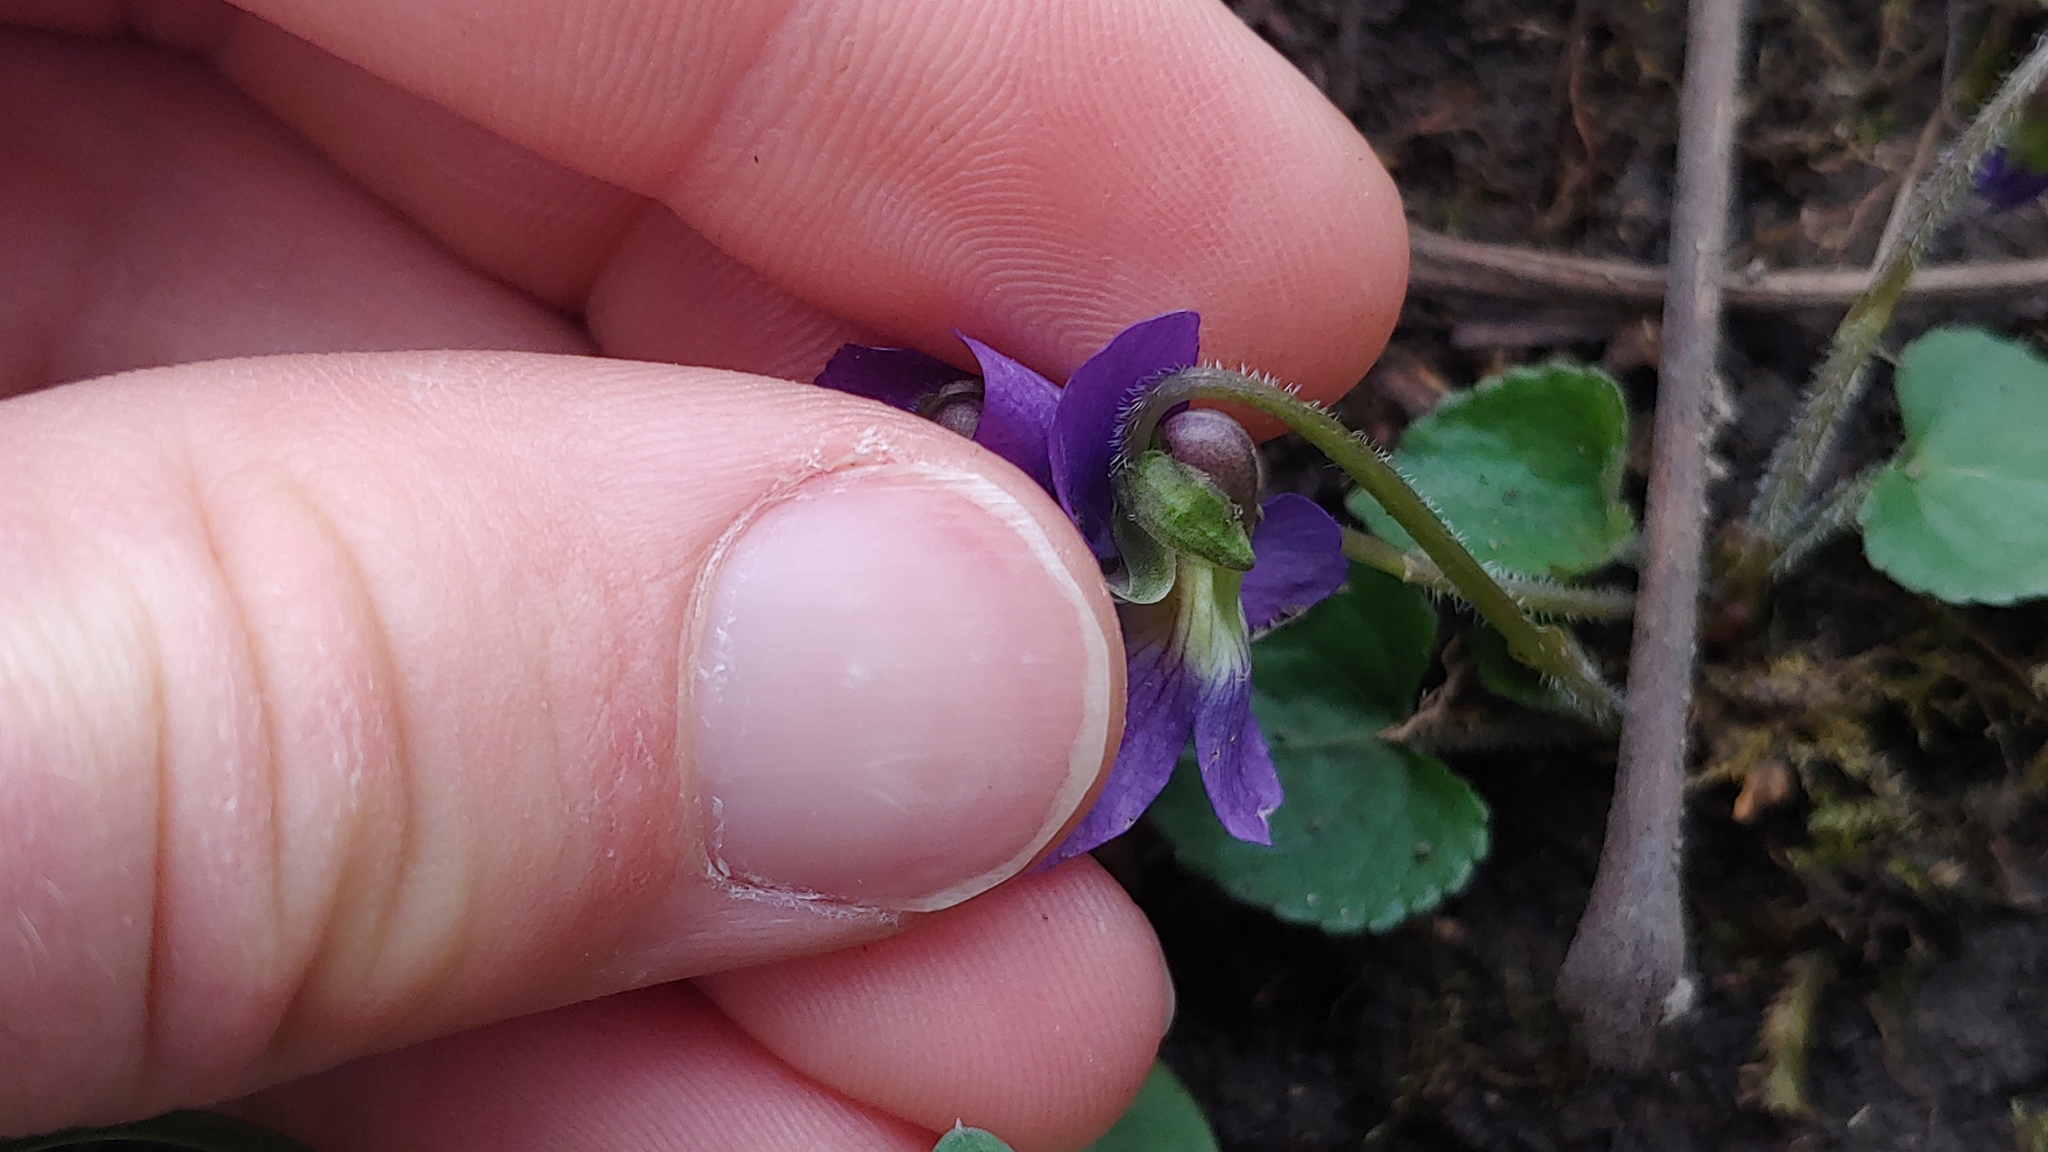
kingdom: Plantae
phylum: Tracheophyta
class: Magnoliopsida
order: Malpighiales
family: Violaceae
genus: Viola
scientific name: Viola sororia
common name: Dooryard violet
